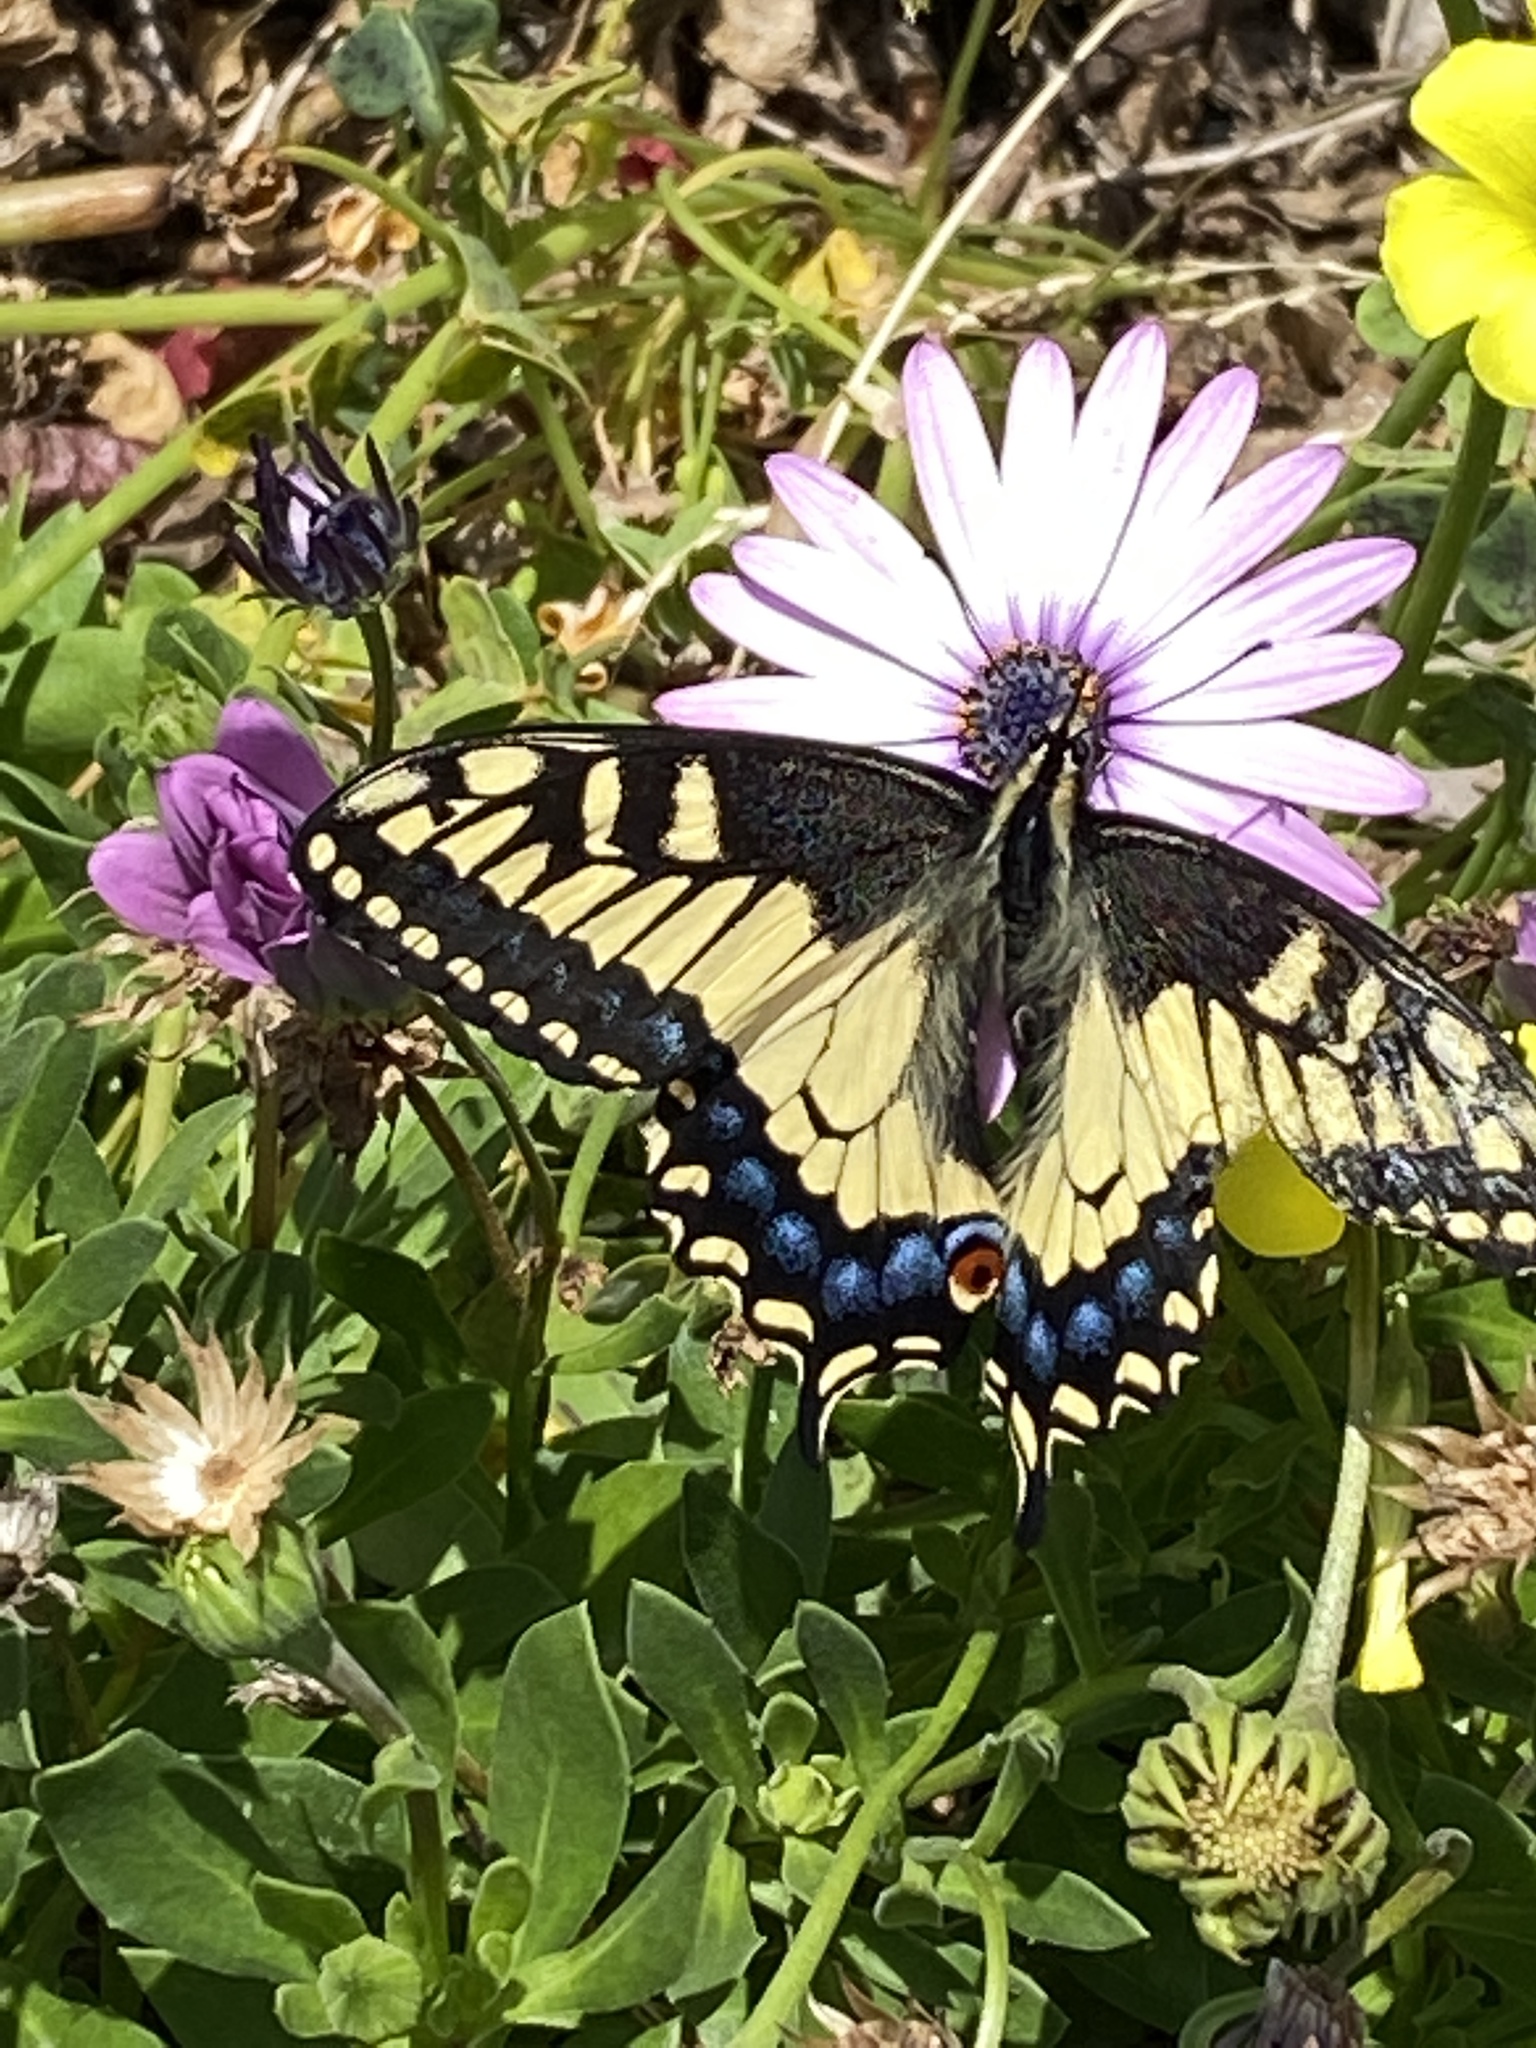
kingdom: Animalia
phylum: Arthropoda
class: Insecta
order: Lepidoptera
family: Papilionidae
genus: Papilio
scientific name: Papilio zelicaon
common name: Anise swallowtail
